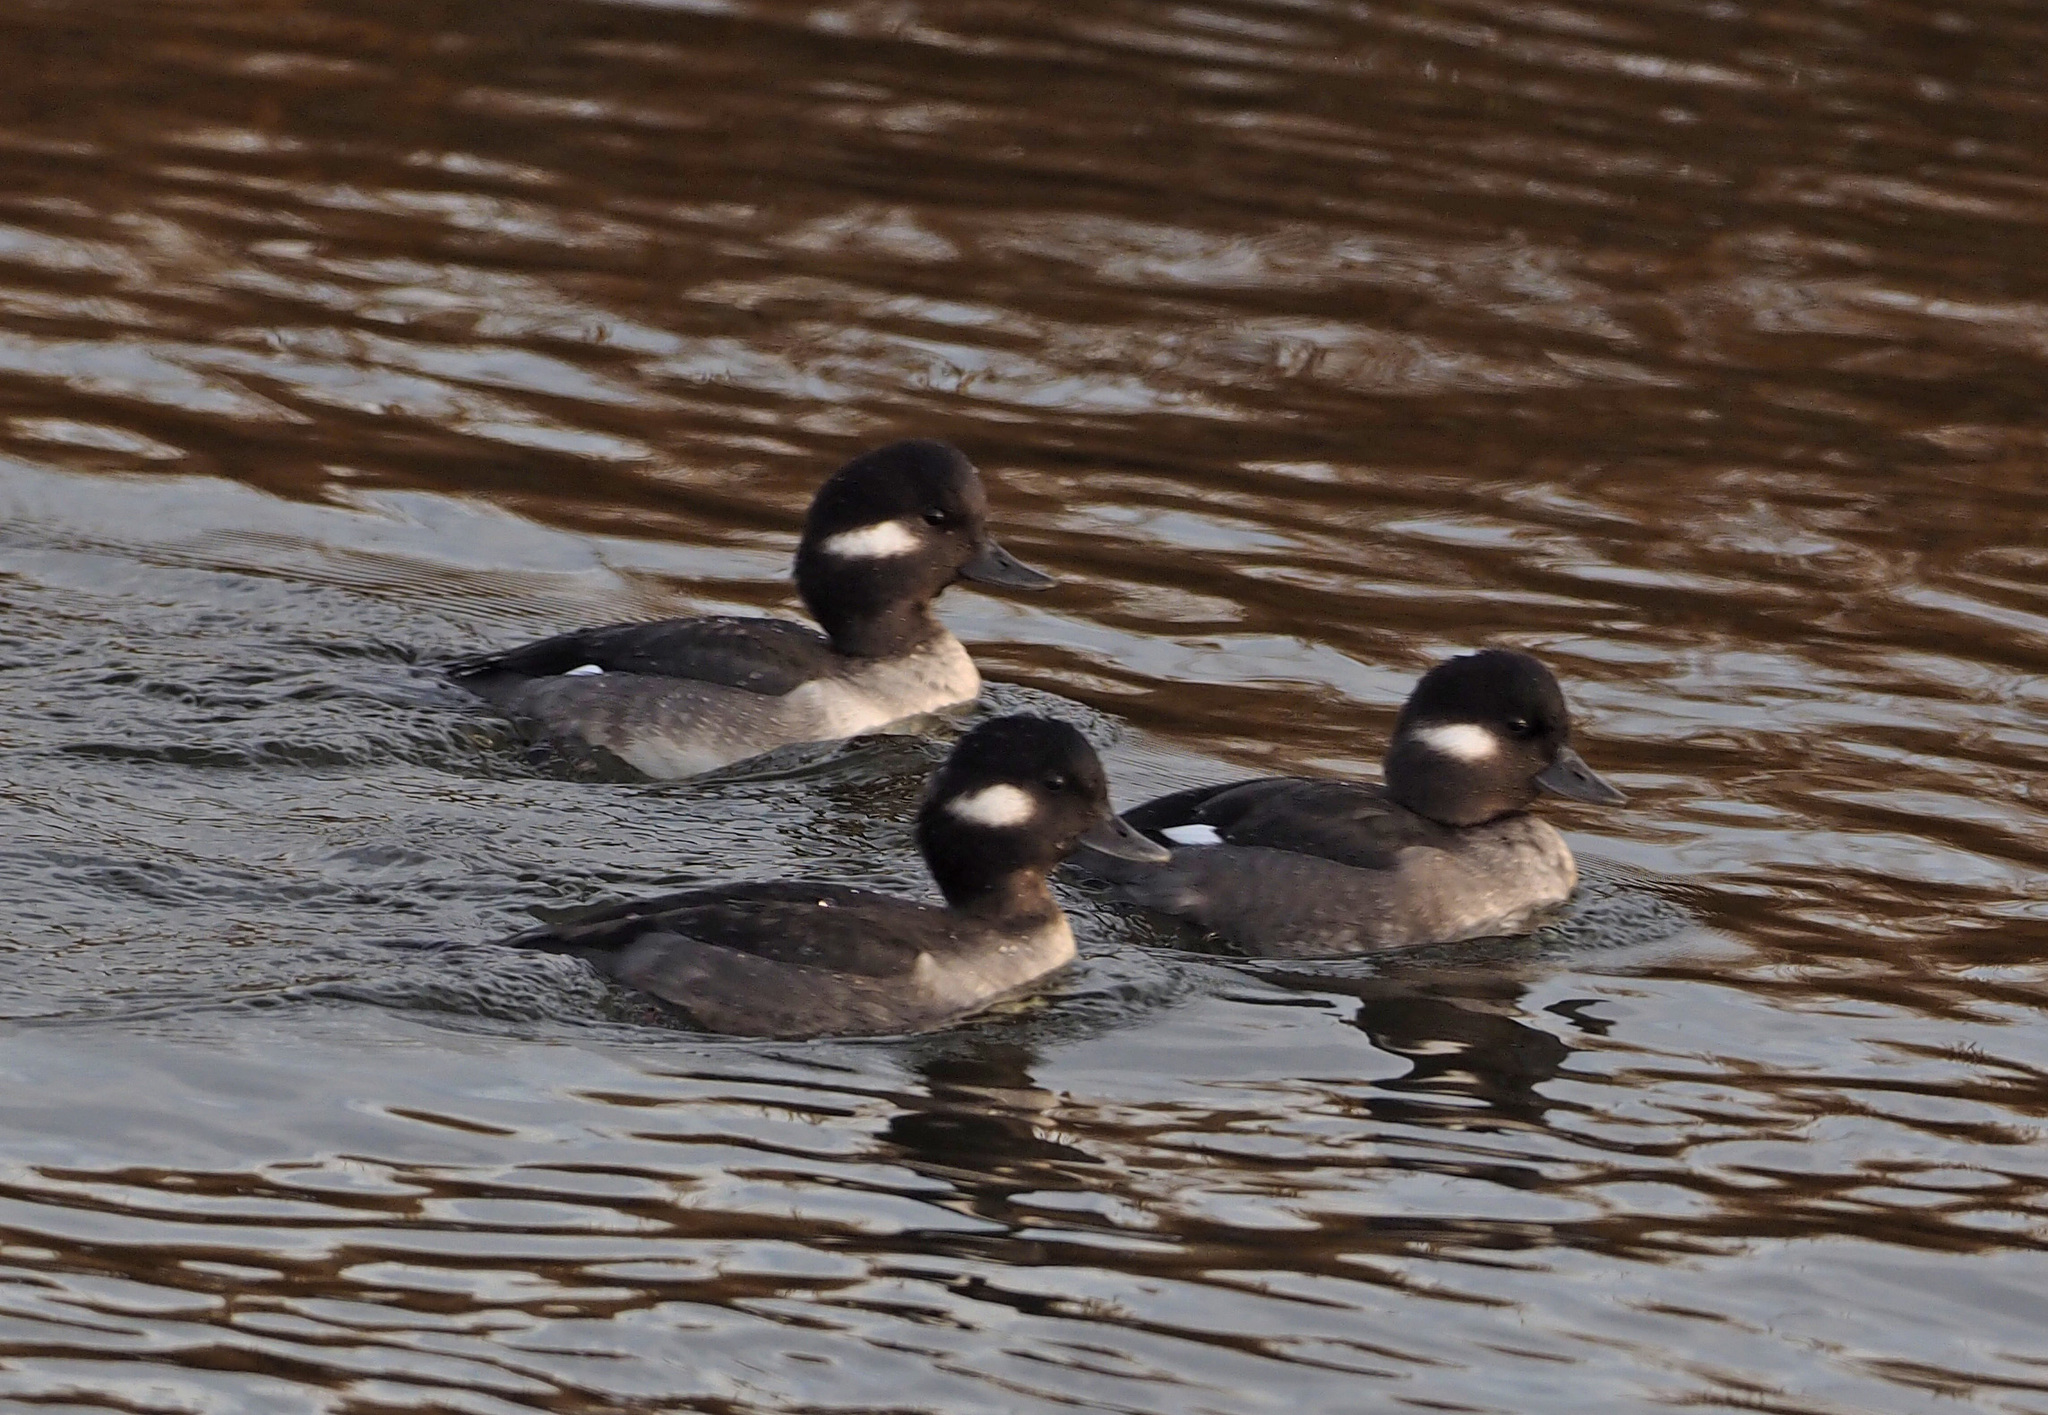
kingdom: Animalia
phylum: Chordata
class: Aves
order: Anseriformes
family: Anatidae
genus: Bucephala
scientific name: Bucephala albeola
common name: Bufflehead
